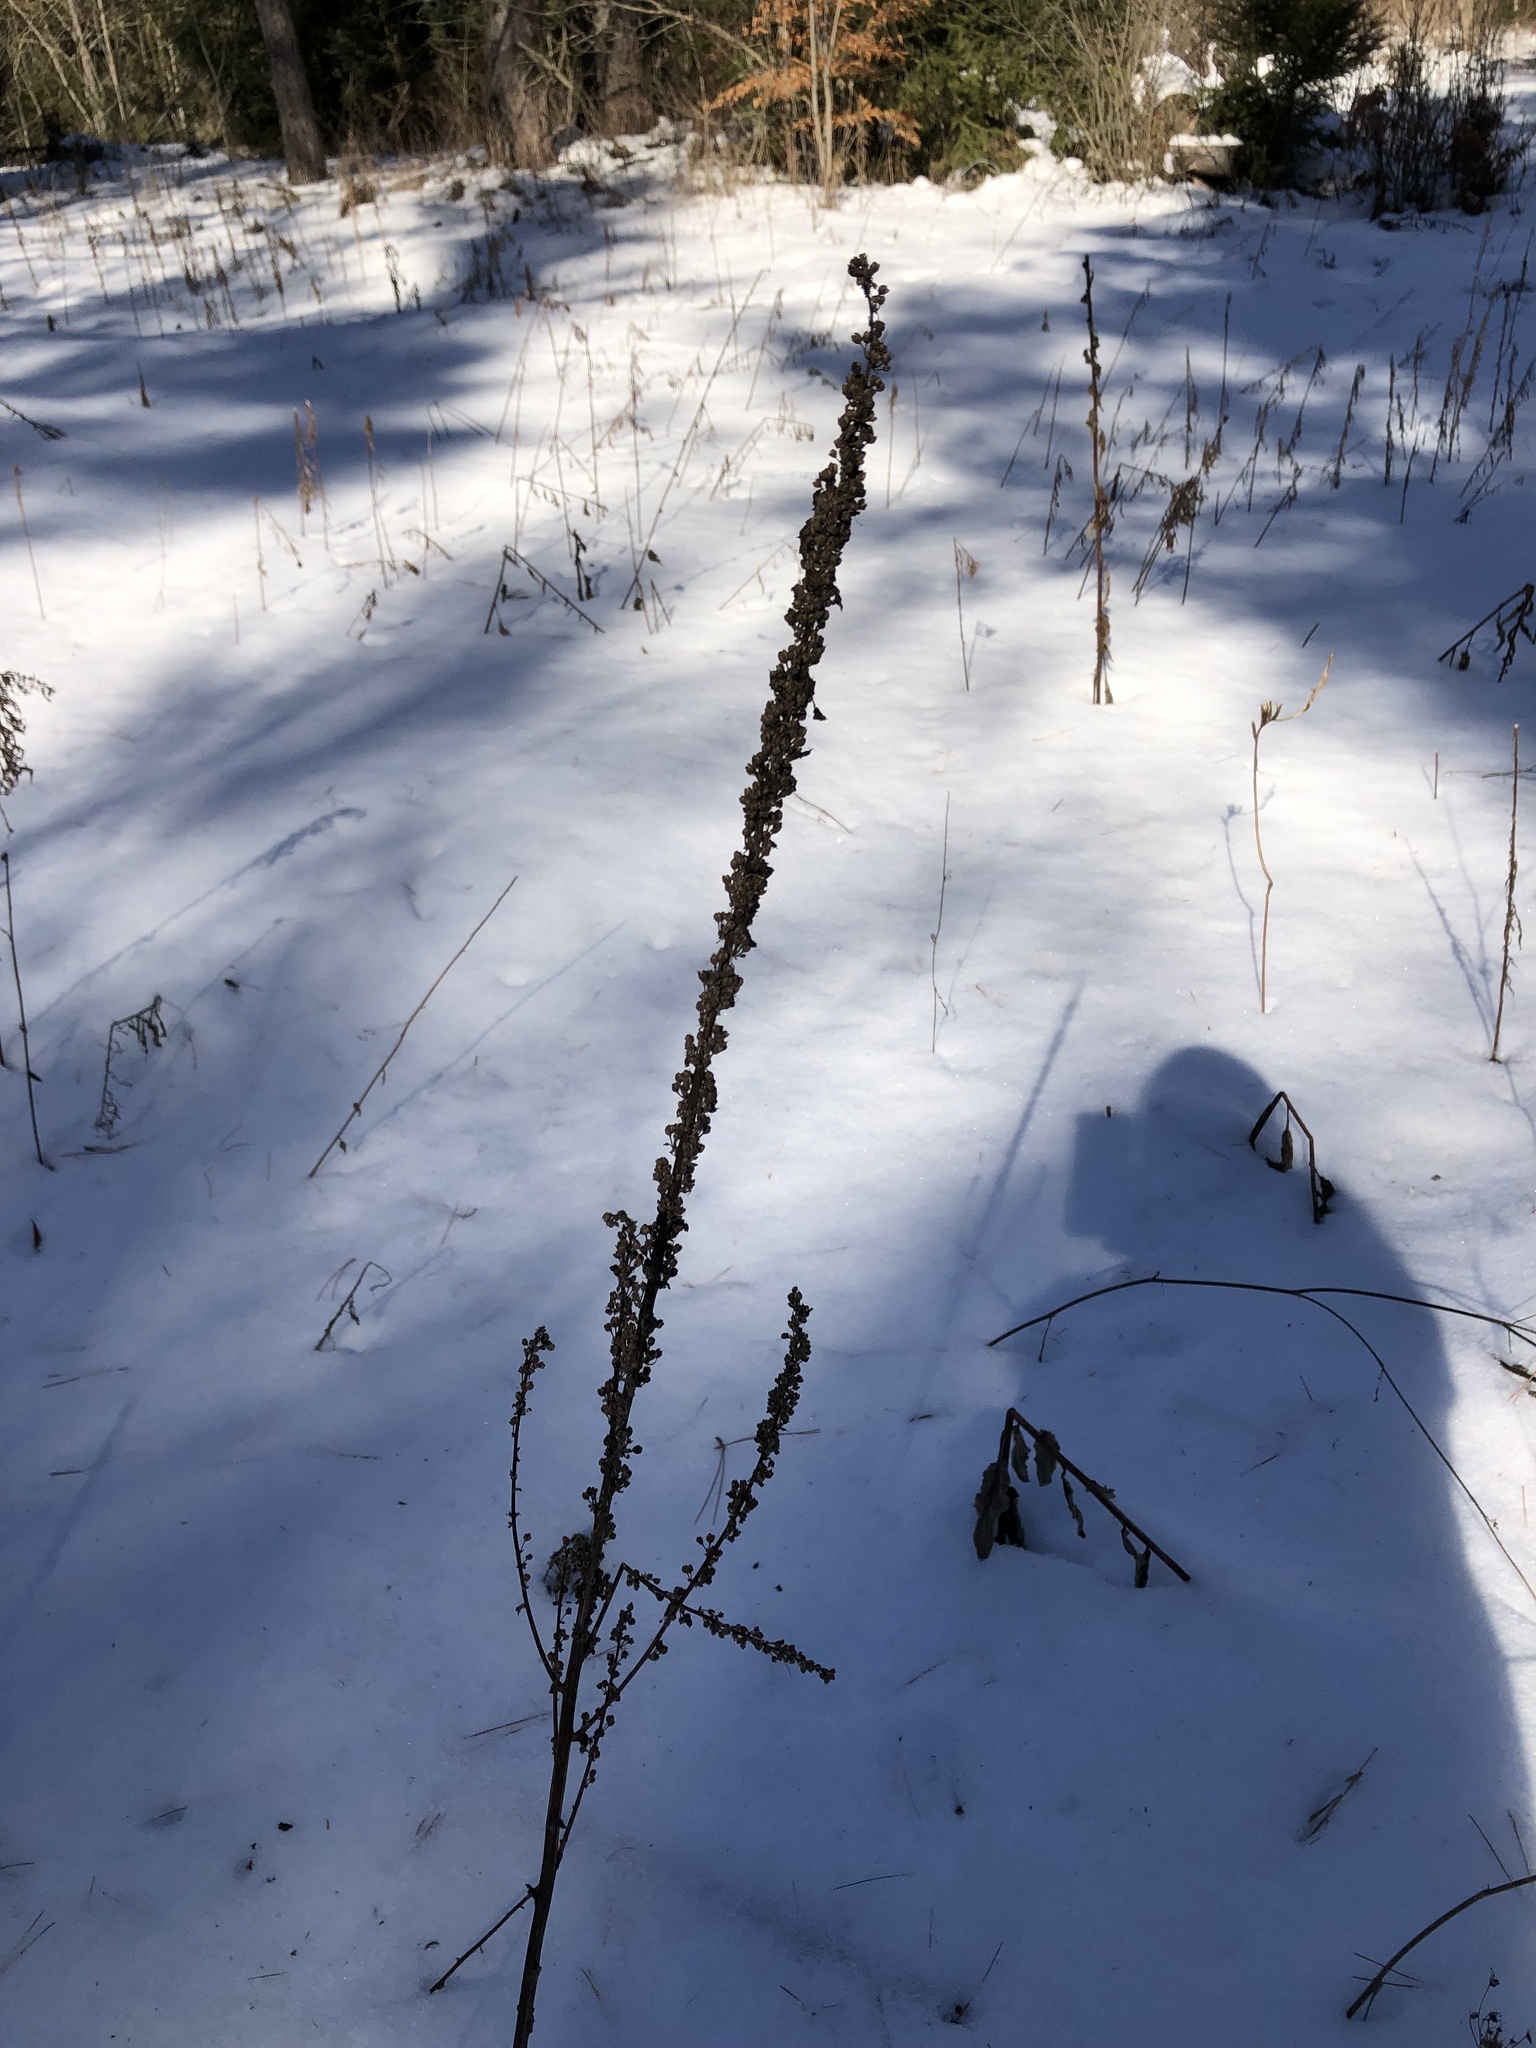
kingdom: Plantae
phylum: Tracheophyta
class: Magnoliopsida
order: Lamiales
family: Scrophulariaceae
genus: Verbascum
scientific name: Verbascum thapsus
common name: Common mullein
